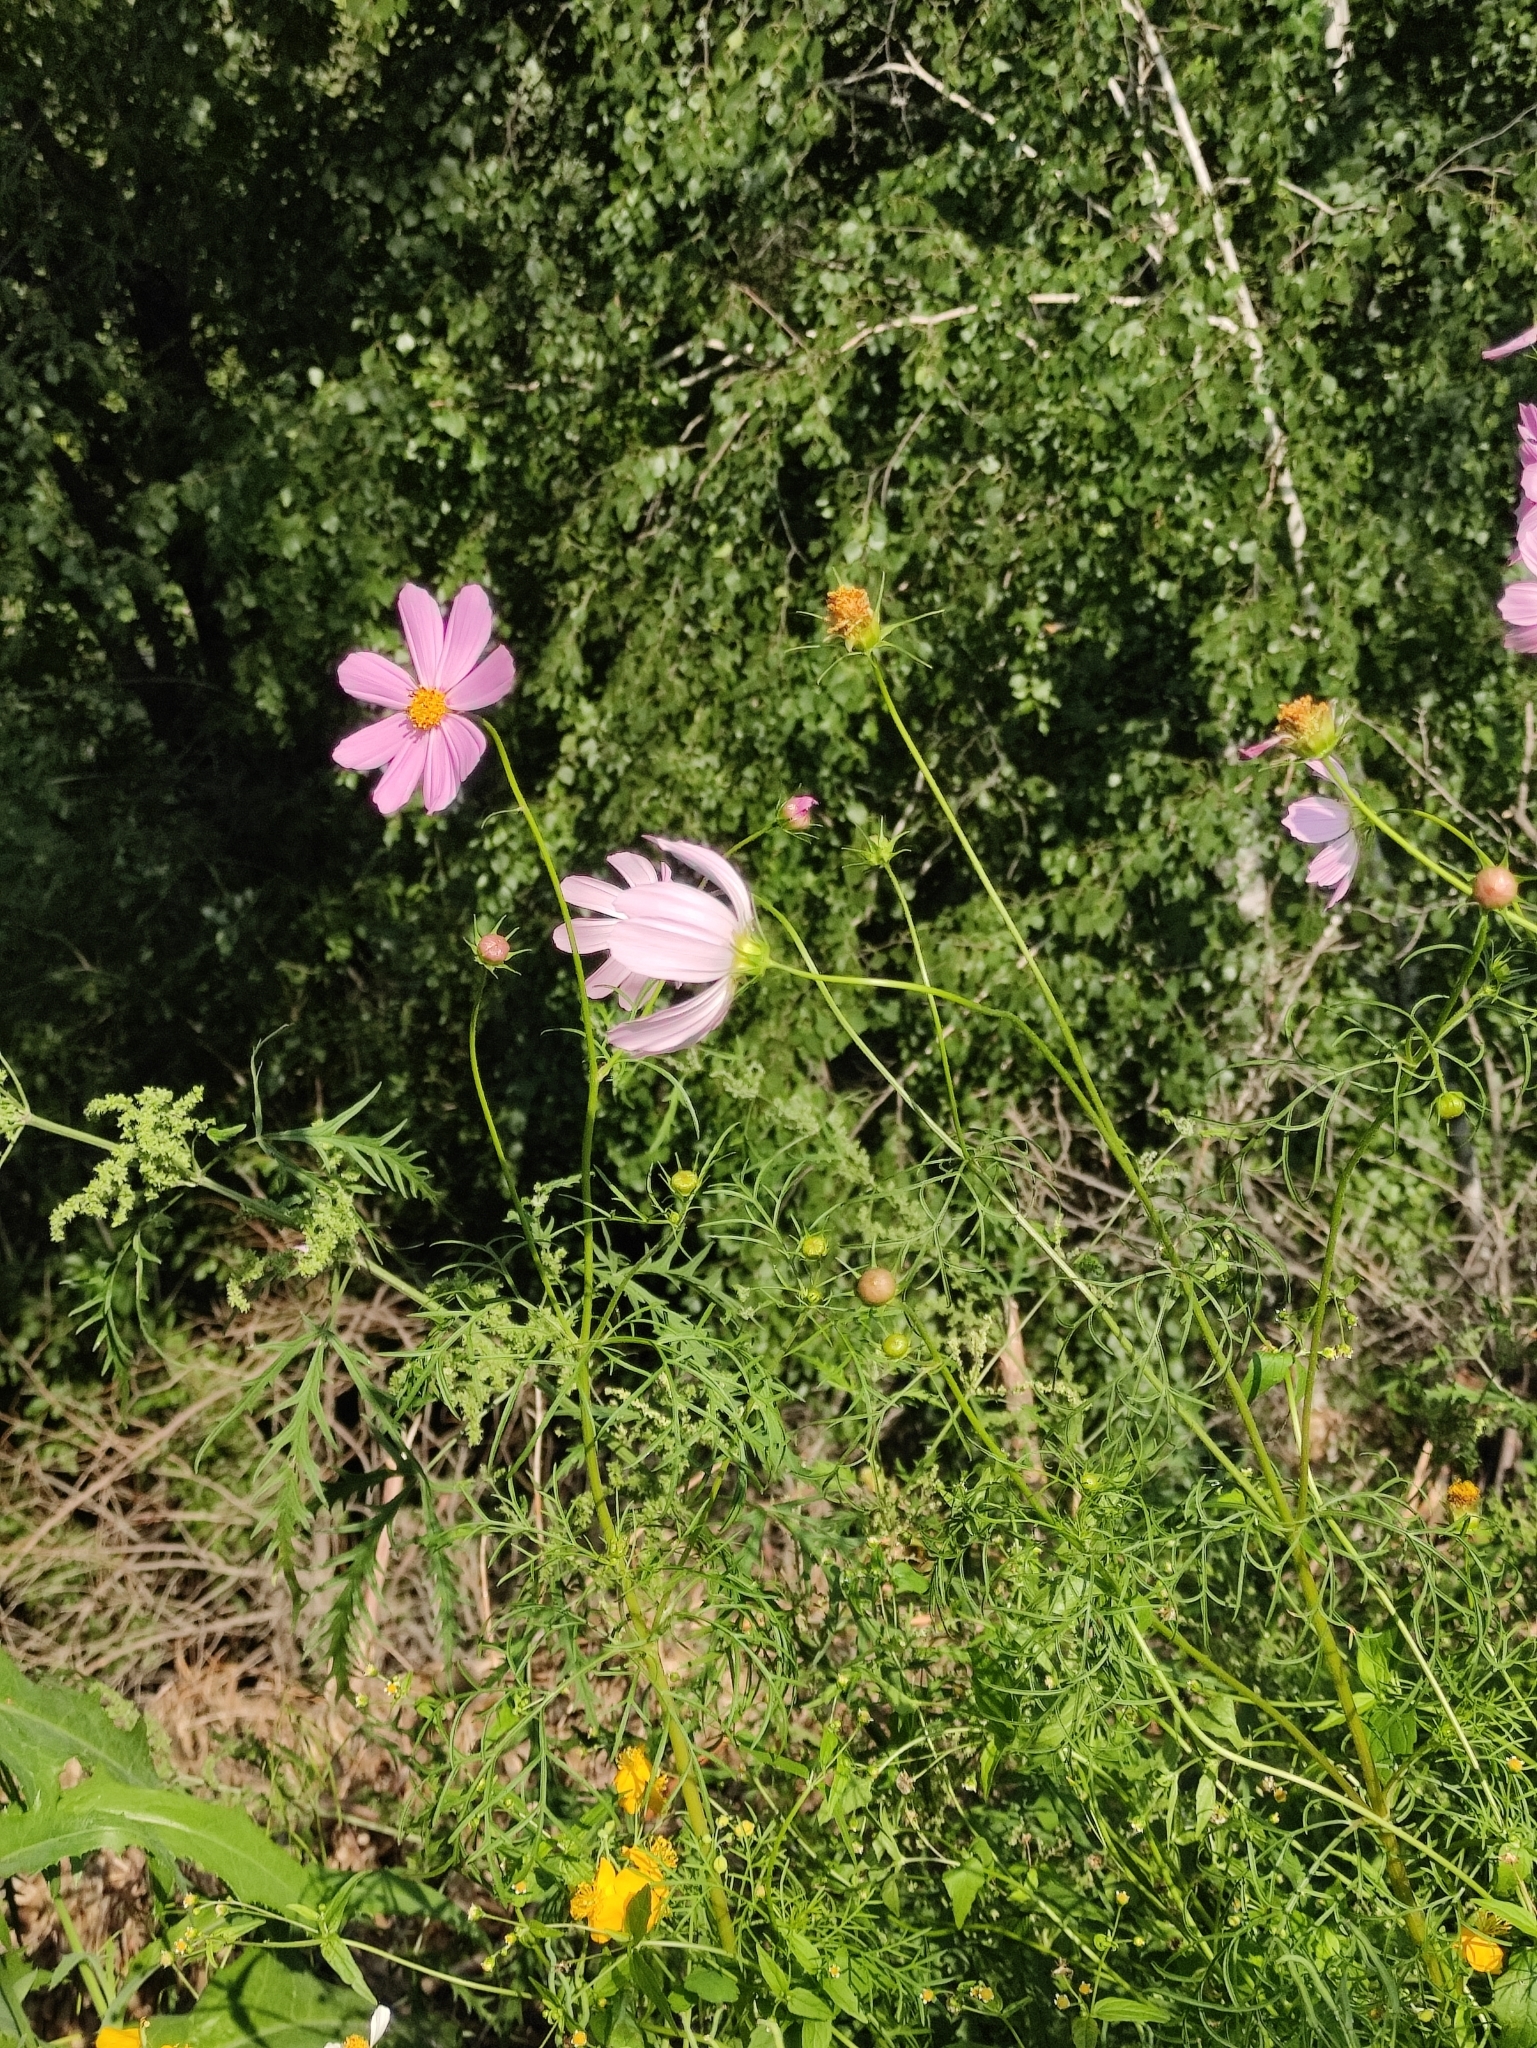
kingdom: Plantae
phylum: Tracheophyta
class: Magnoliopsida
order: Asterales
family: Asteraceae
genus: Cosmos
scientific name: Cosmos bipinnatus
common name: Garden cosmos
